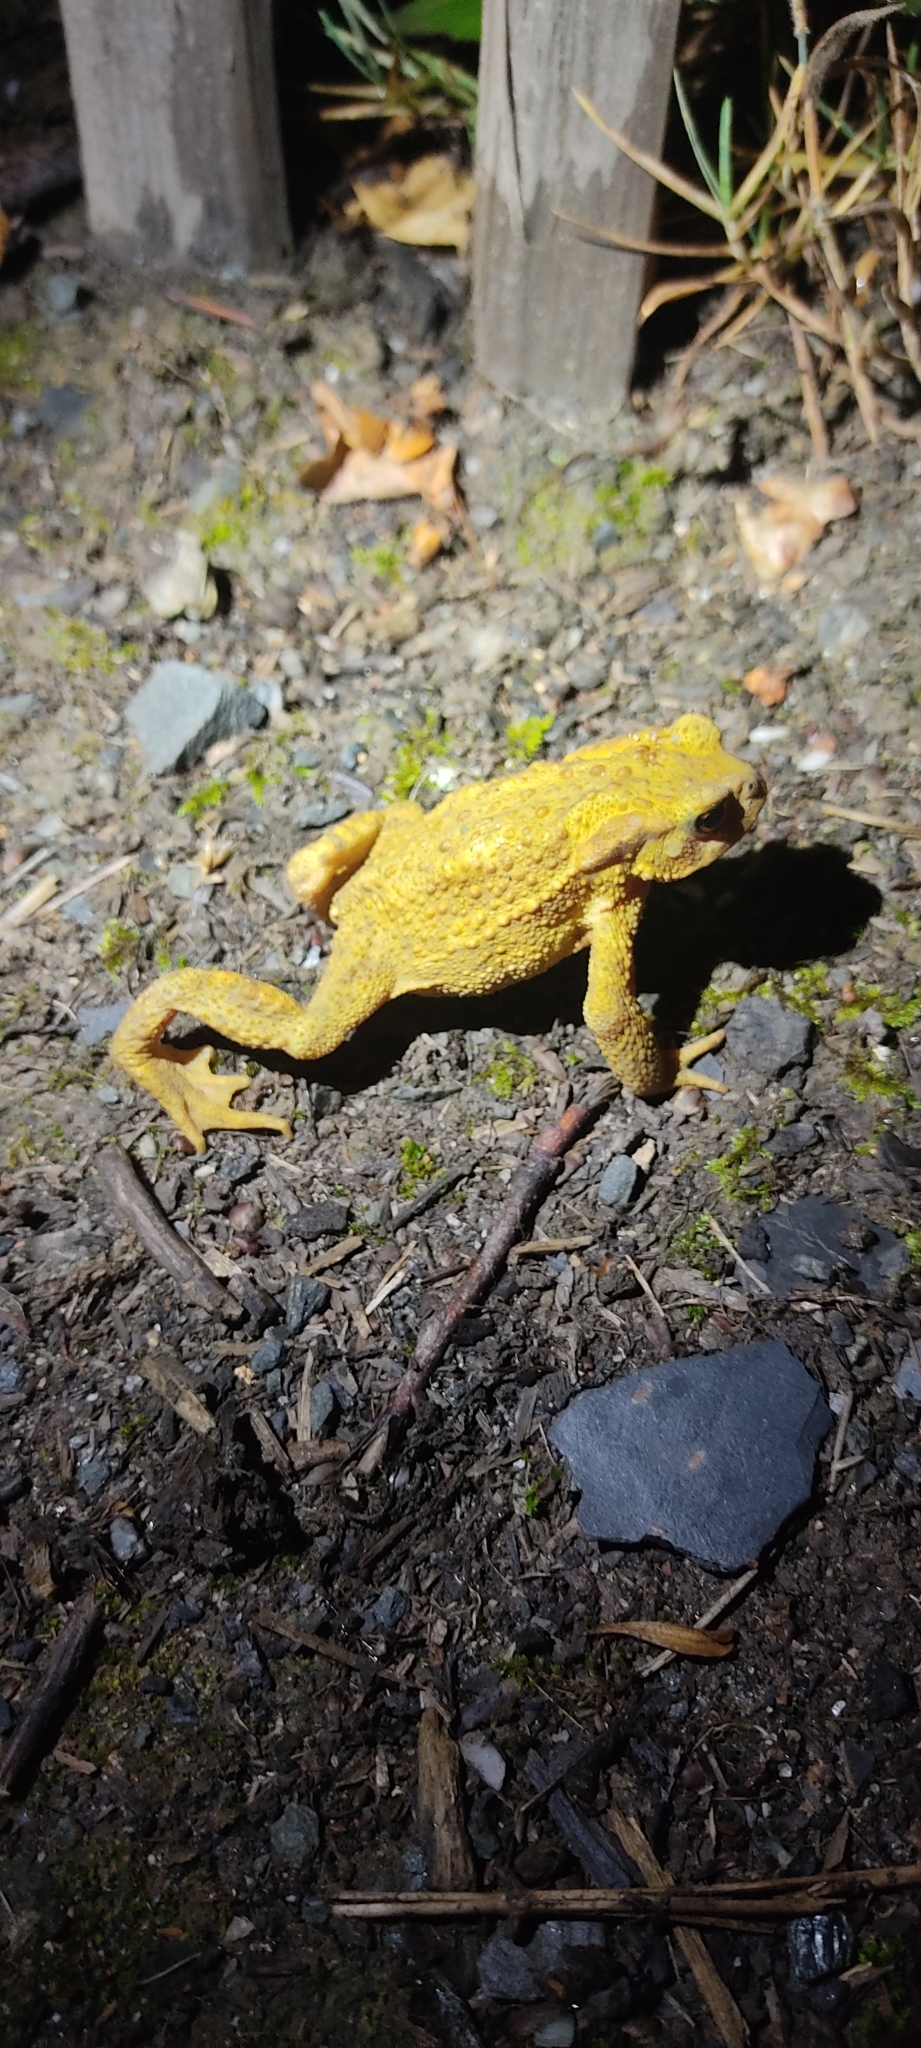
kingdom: Animalia
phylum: Chordata
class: Amphibia
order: Anura
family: Bufonidae
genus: Bufo
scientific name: Bufo spinosus
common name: Western common toad
